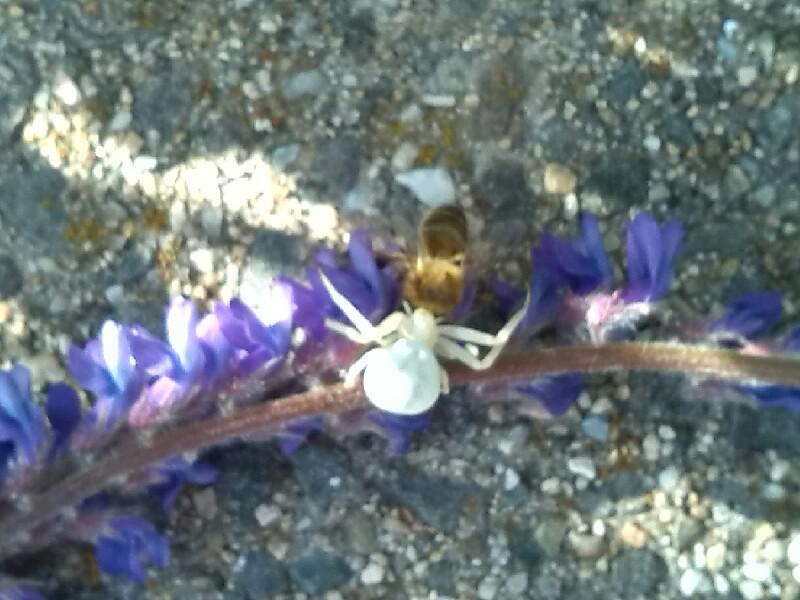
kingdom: Animalia
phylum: Arthropoda
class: Arachnida
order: Araneae
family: Thomisidae
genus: Misumena
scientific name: Misumena vatia
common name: Goldenrod crab spider
